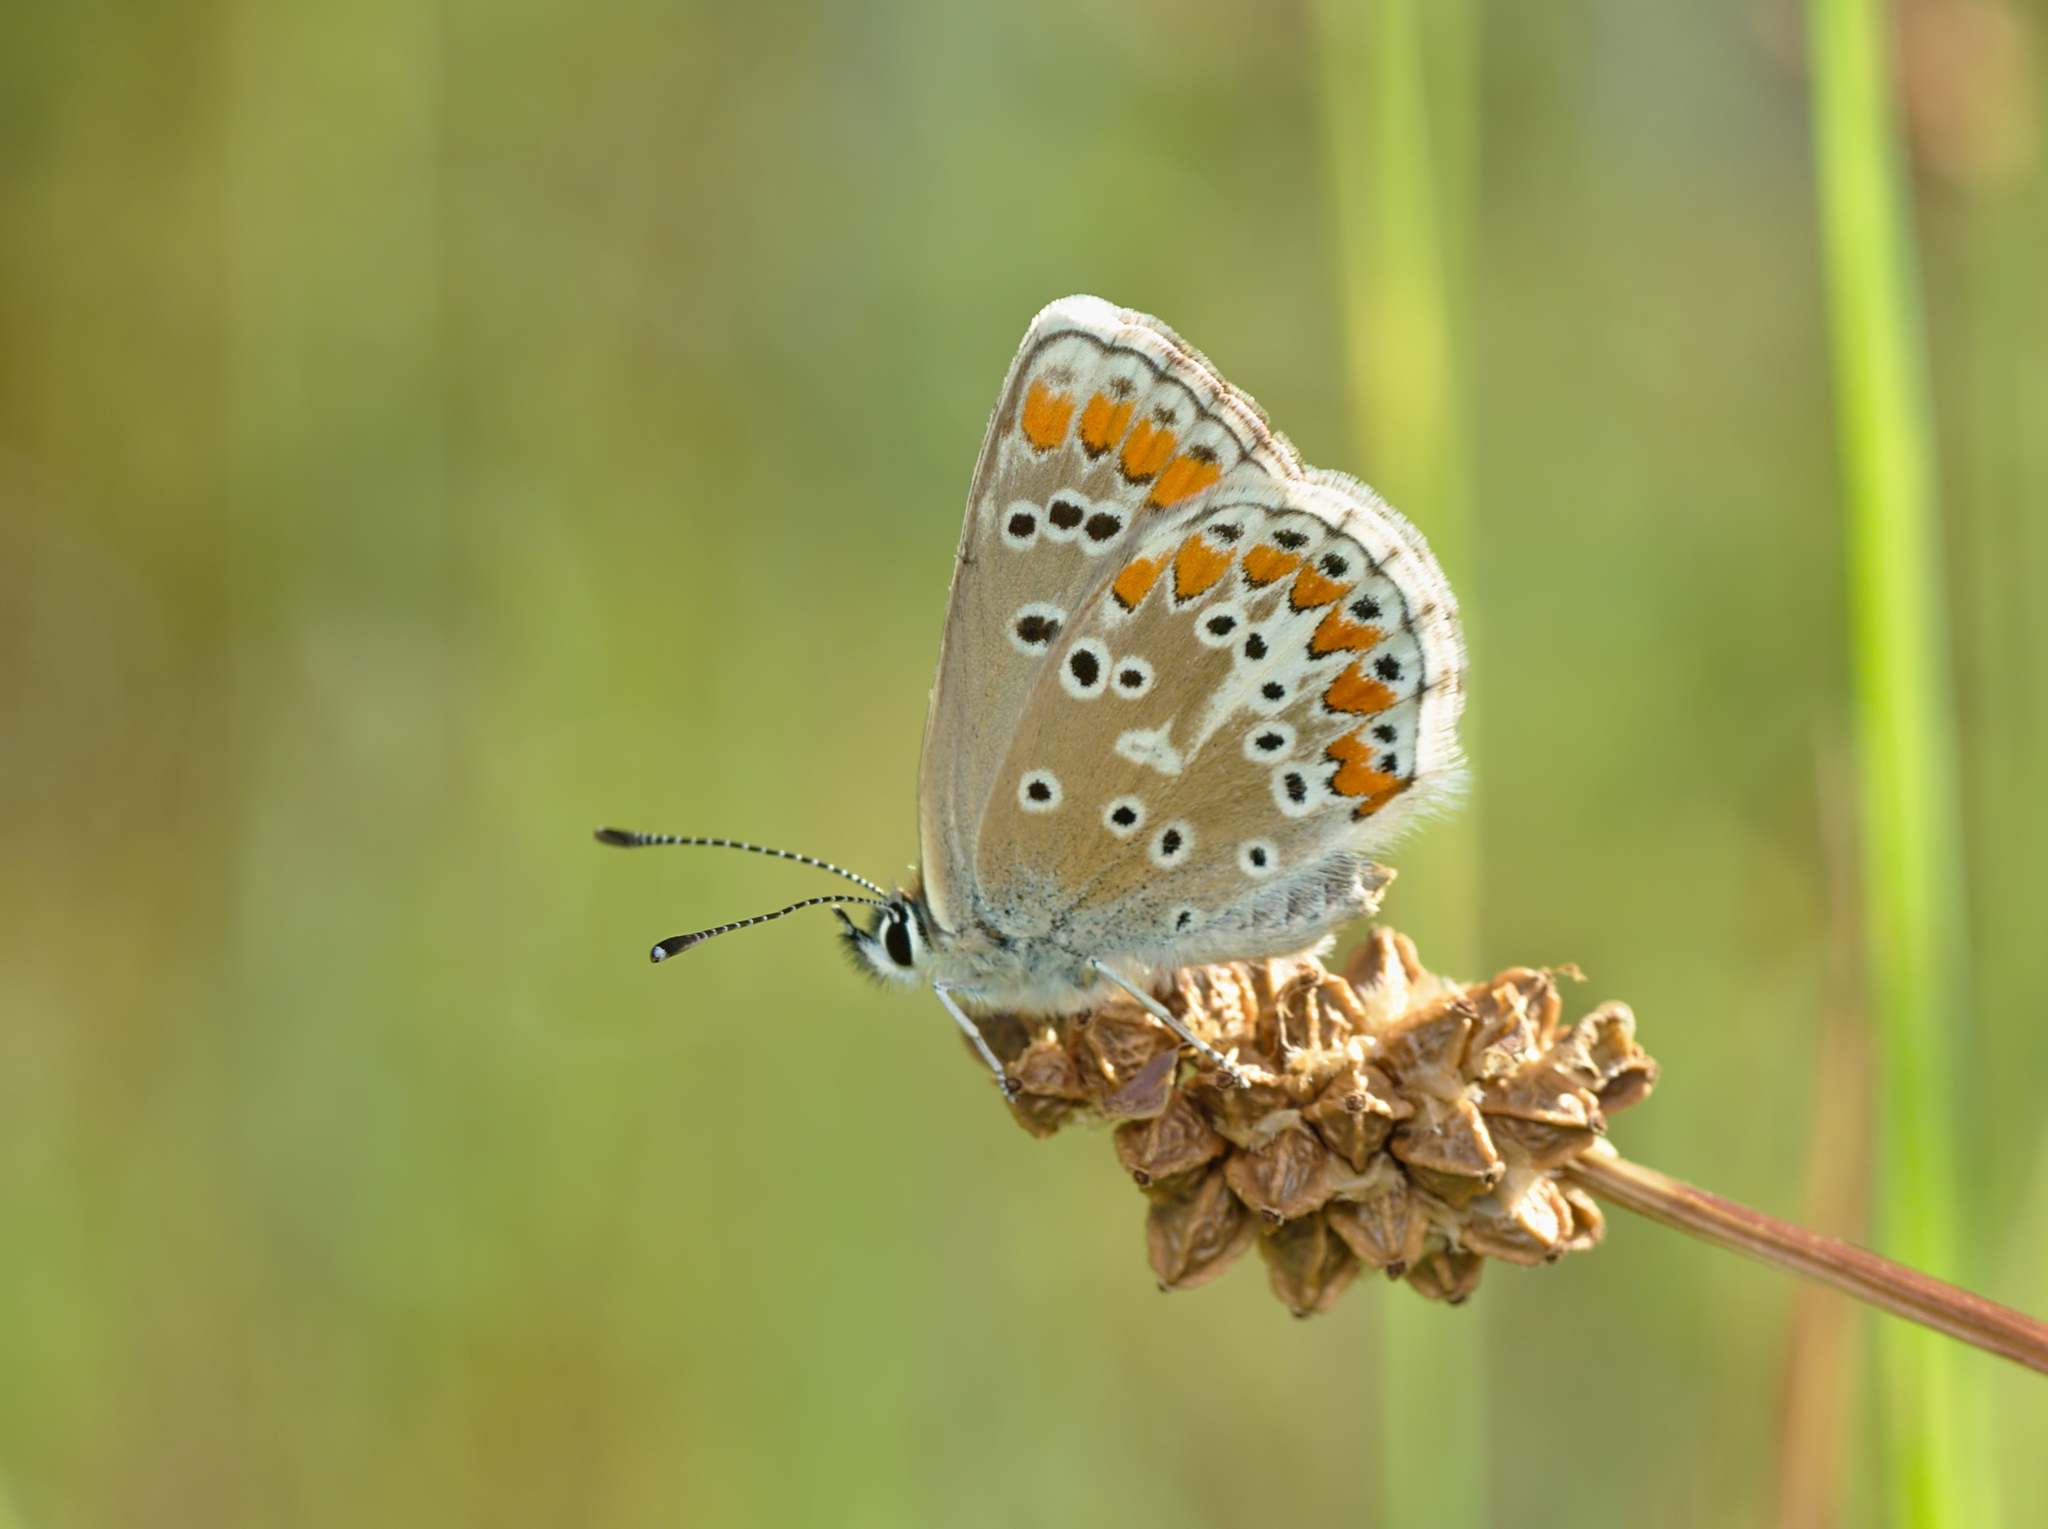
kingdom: Animalia
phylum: Arthropoda
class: Insecta
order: Lepidoptera
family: Lycaenidae
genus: Aricia
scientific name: Aricia agestis
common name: Brown argus
